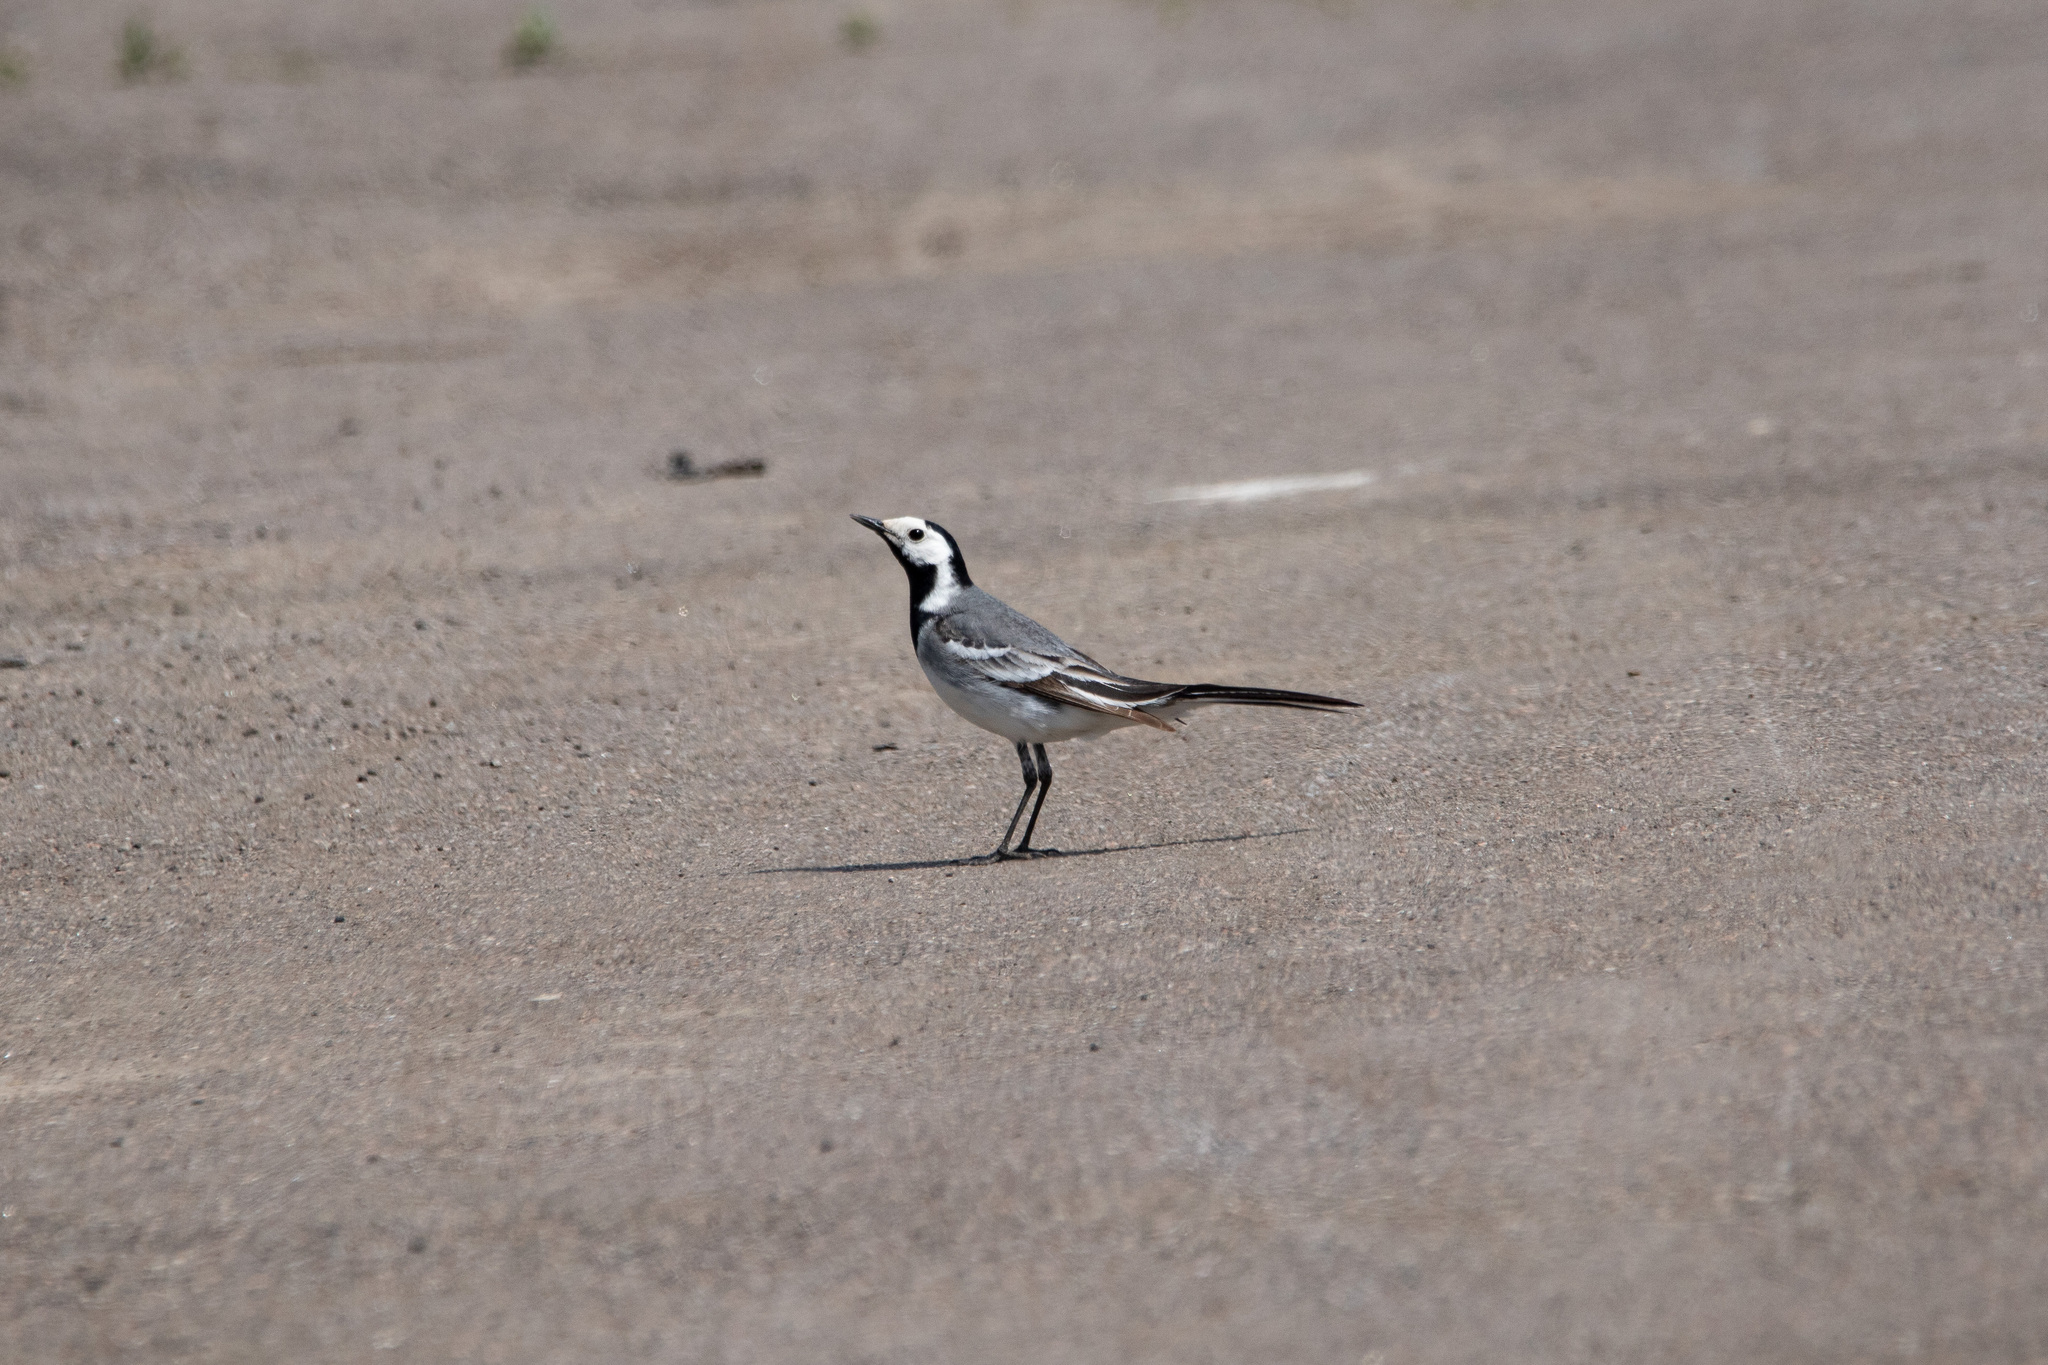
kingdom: Animalia
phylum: Chordata
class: Aves
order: Passeriformes
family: Motacillidae
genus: Motacilla
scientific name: Motacilla alba
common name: White wagtail
